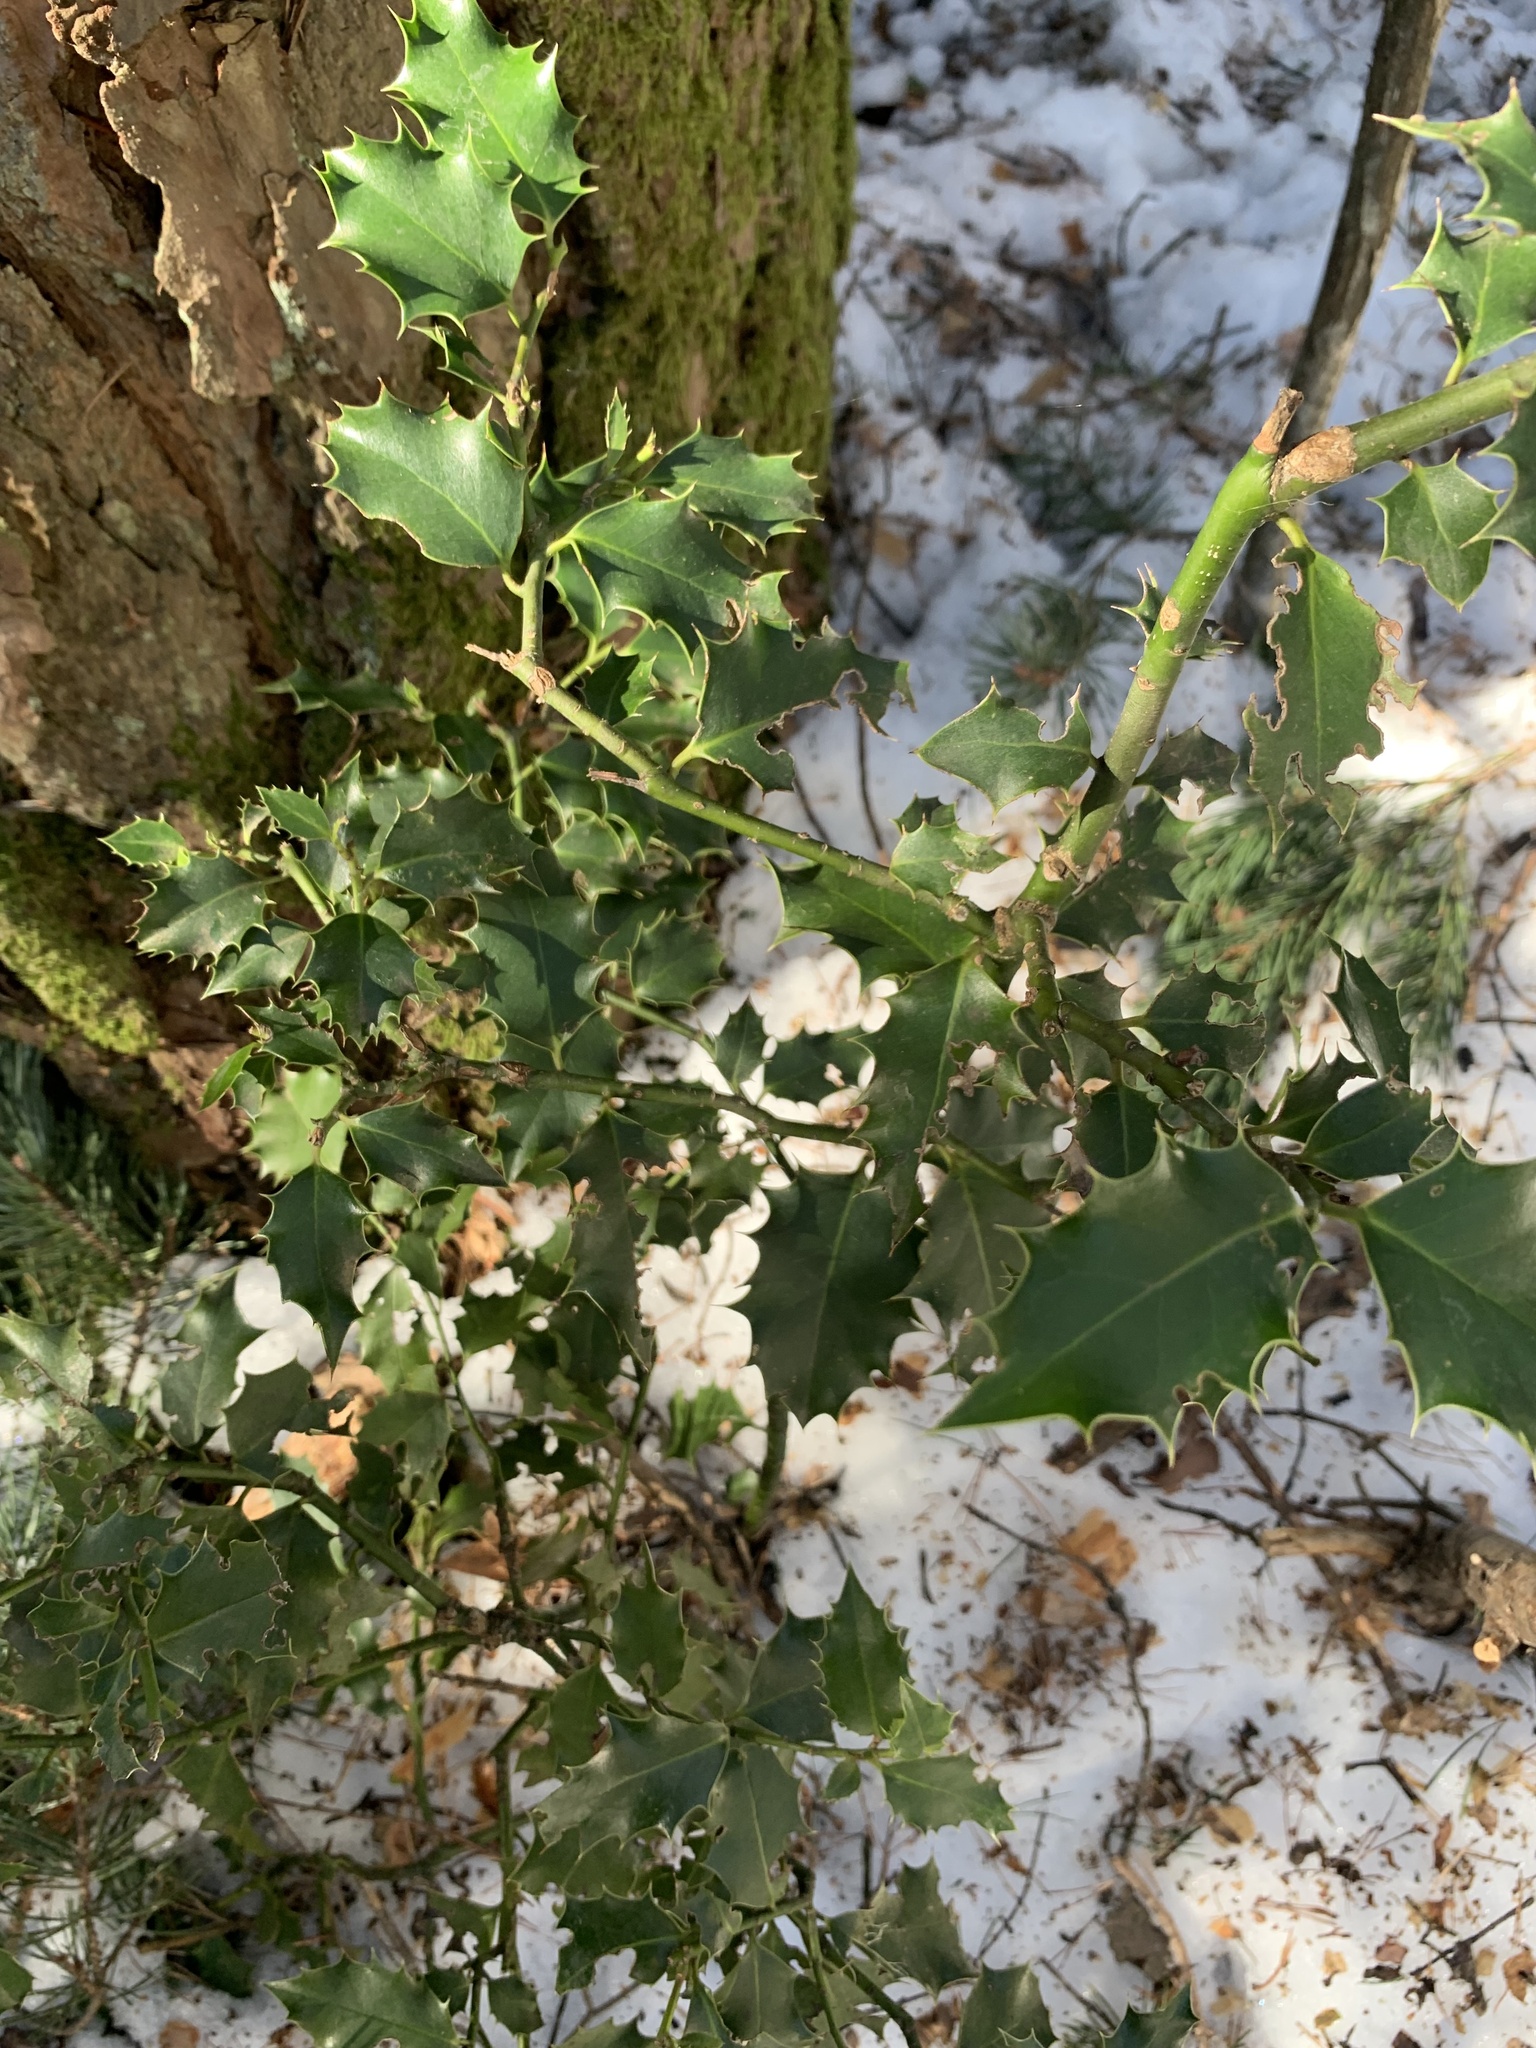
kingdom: Plantae
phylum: Tracheophyta
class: Magnoliopsida
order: Aquifoliales
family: Aquifoliaceae
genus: Ilex
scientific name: Ilex aquifolium
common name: English holly
